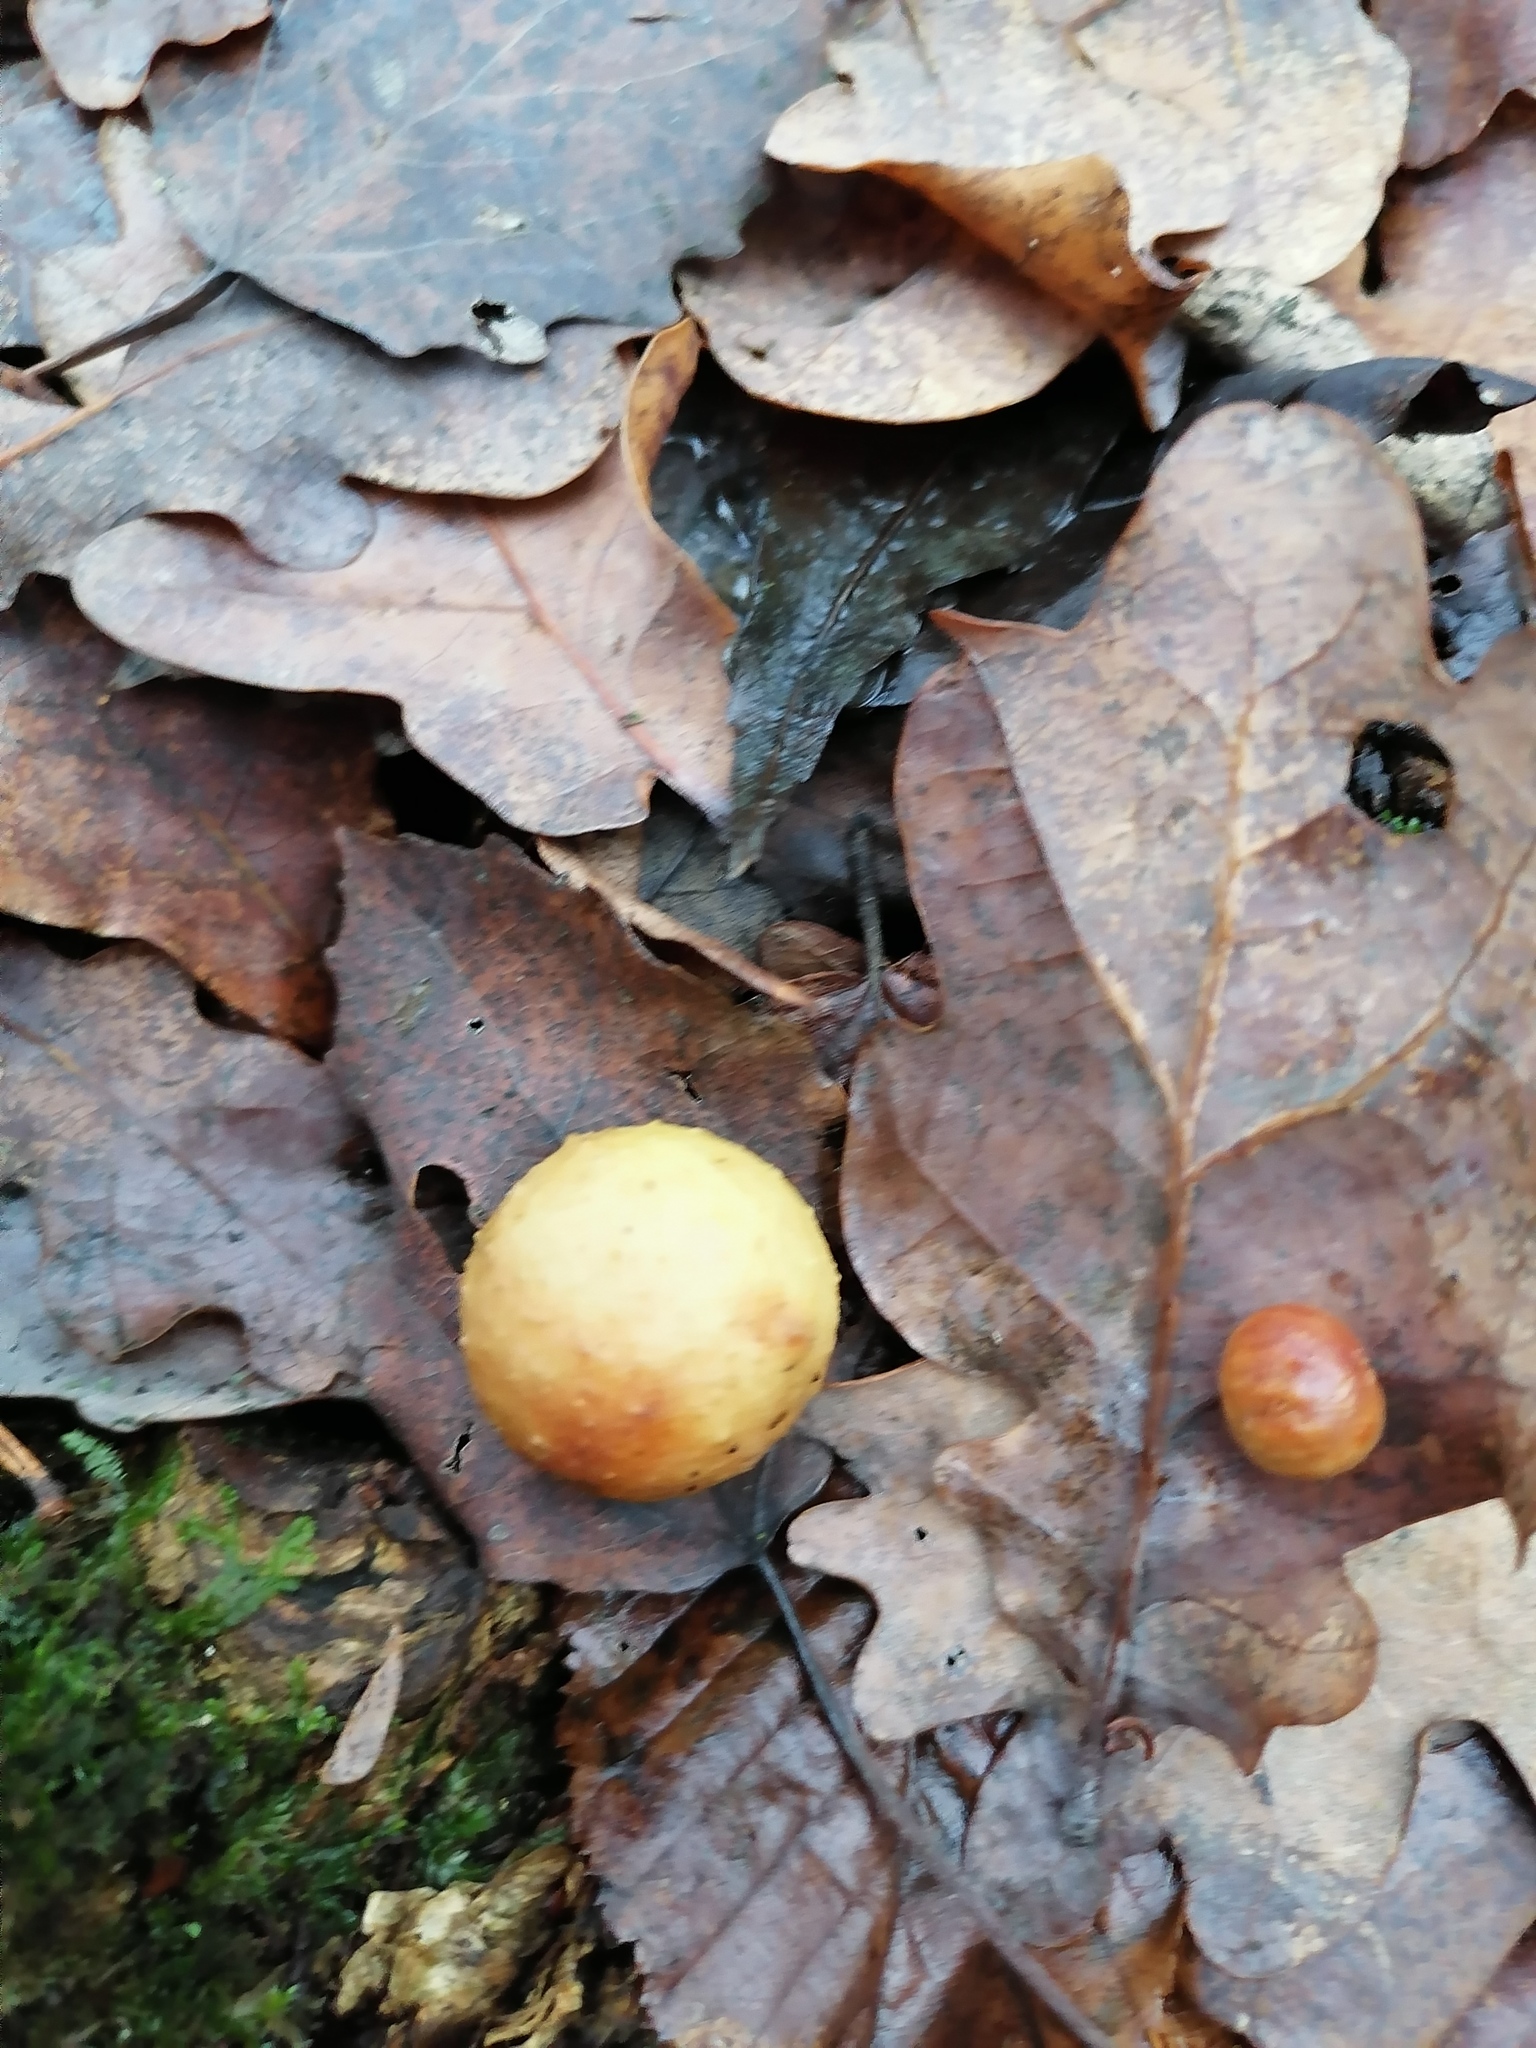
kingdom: Animalia
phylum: Arthropoda
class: Insecta
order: Hymenoptera
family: Cynipidae
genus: Cynips
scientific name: Cynips quercusfolii
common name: Cherry gall
